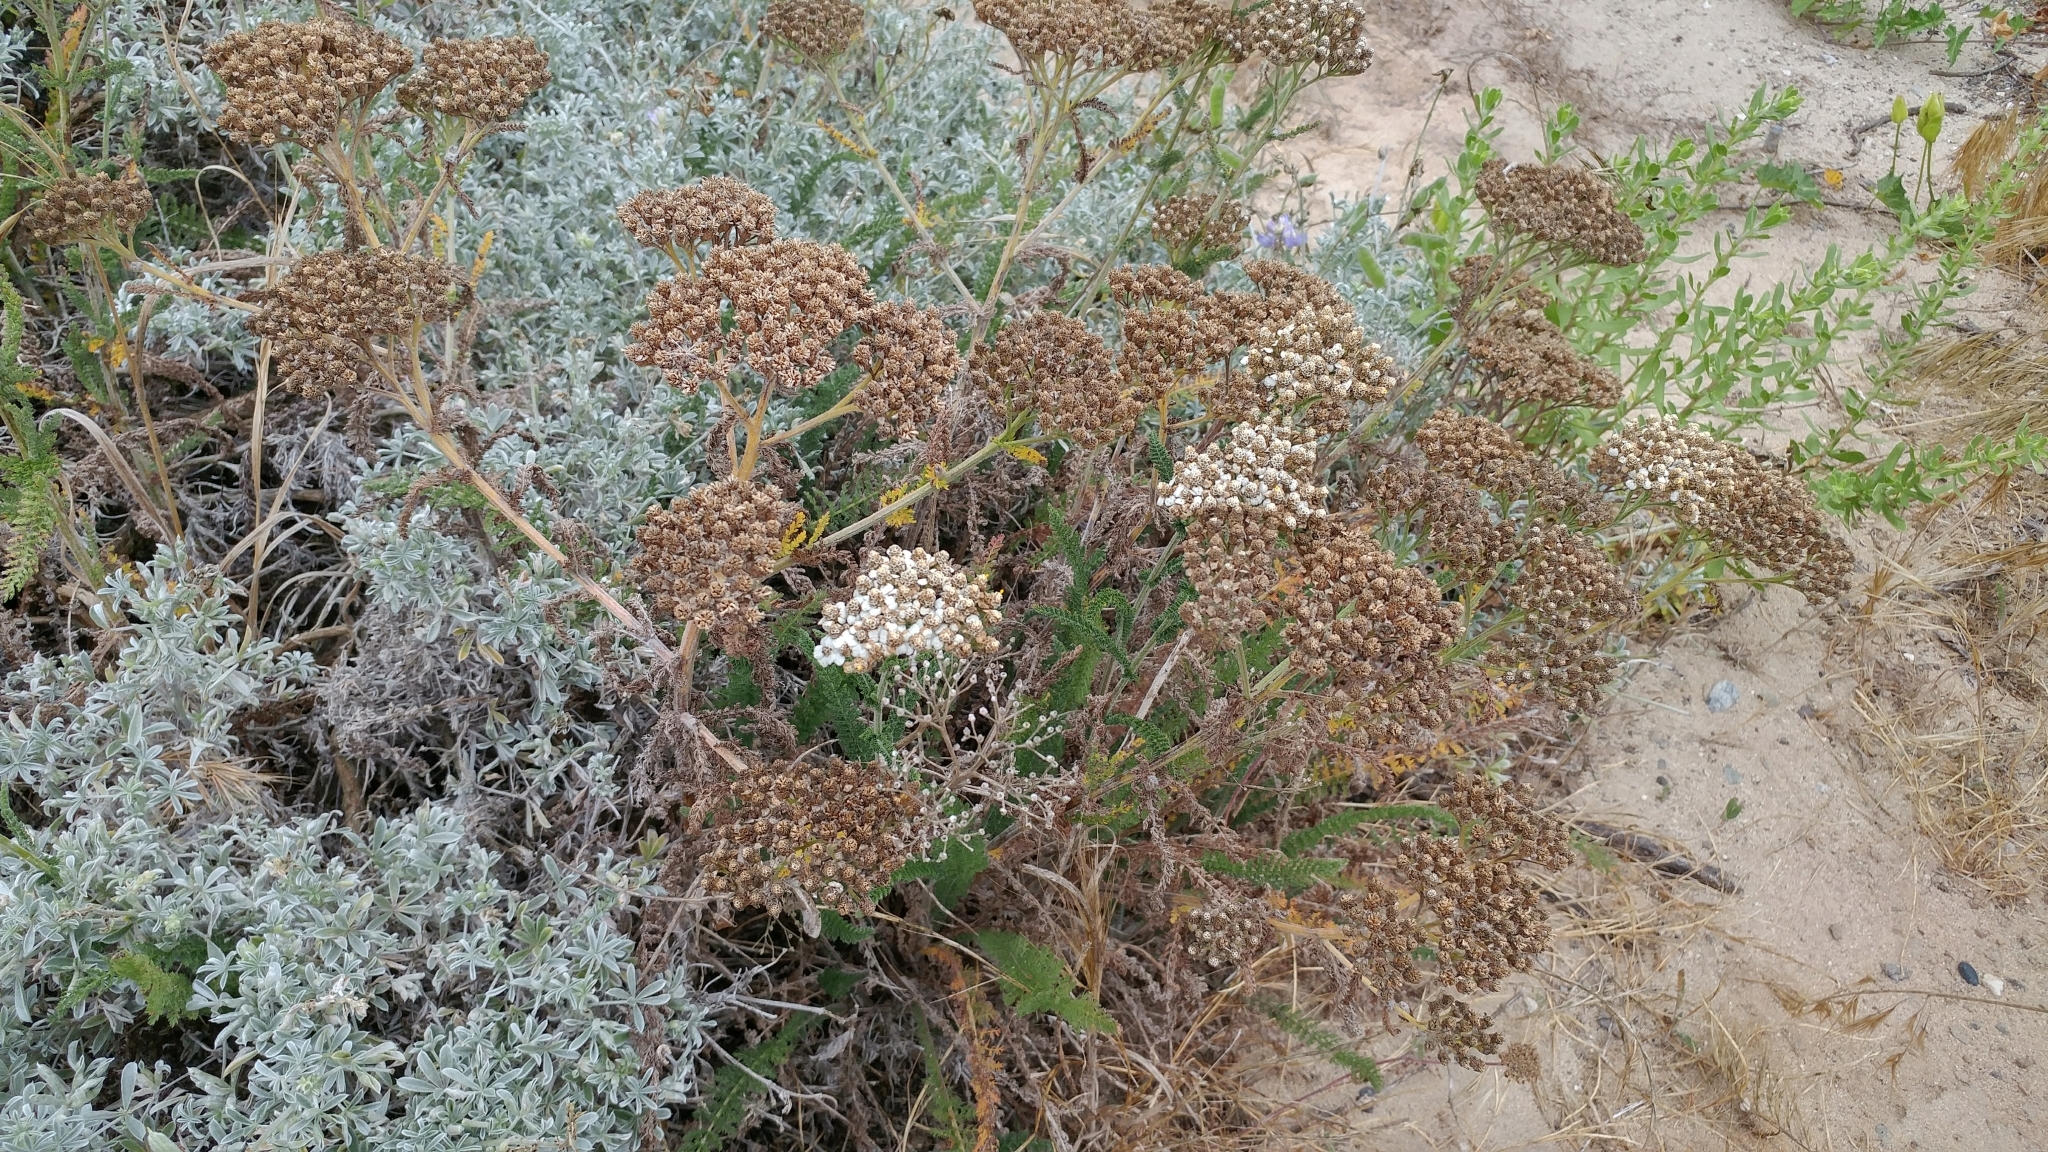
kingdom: Plantae
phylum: Tracheophyta
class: Magnoliopsida
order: Asterales
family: Asteraceae
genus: Achillea
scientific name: Achillea millefolium
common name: Yarrow
